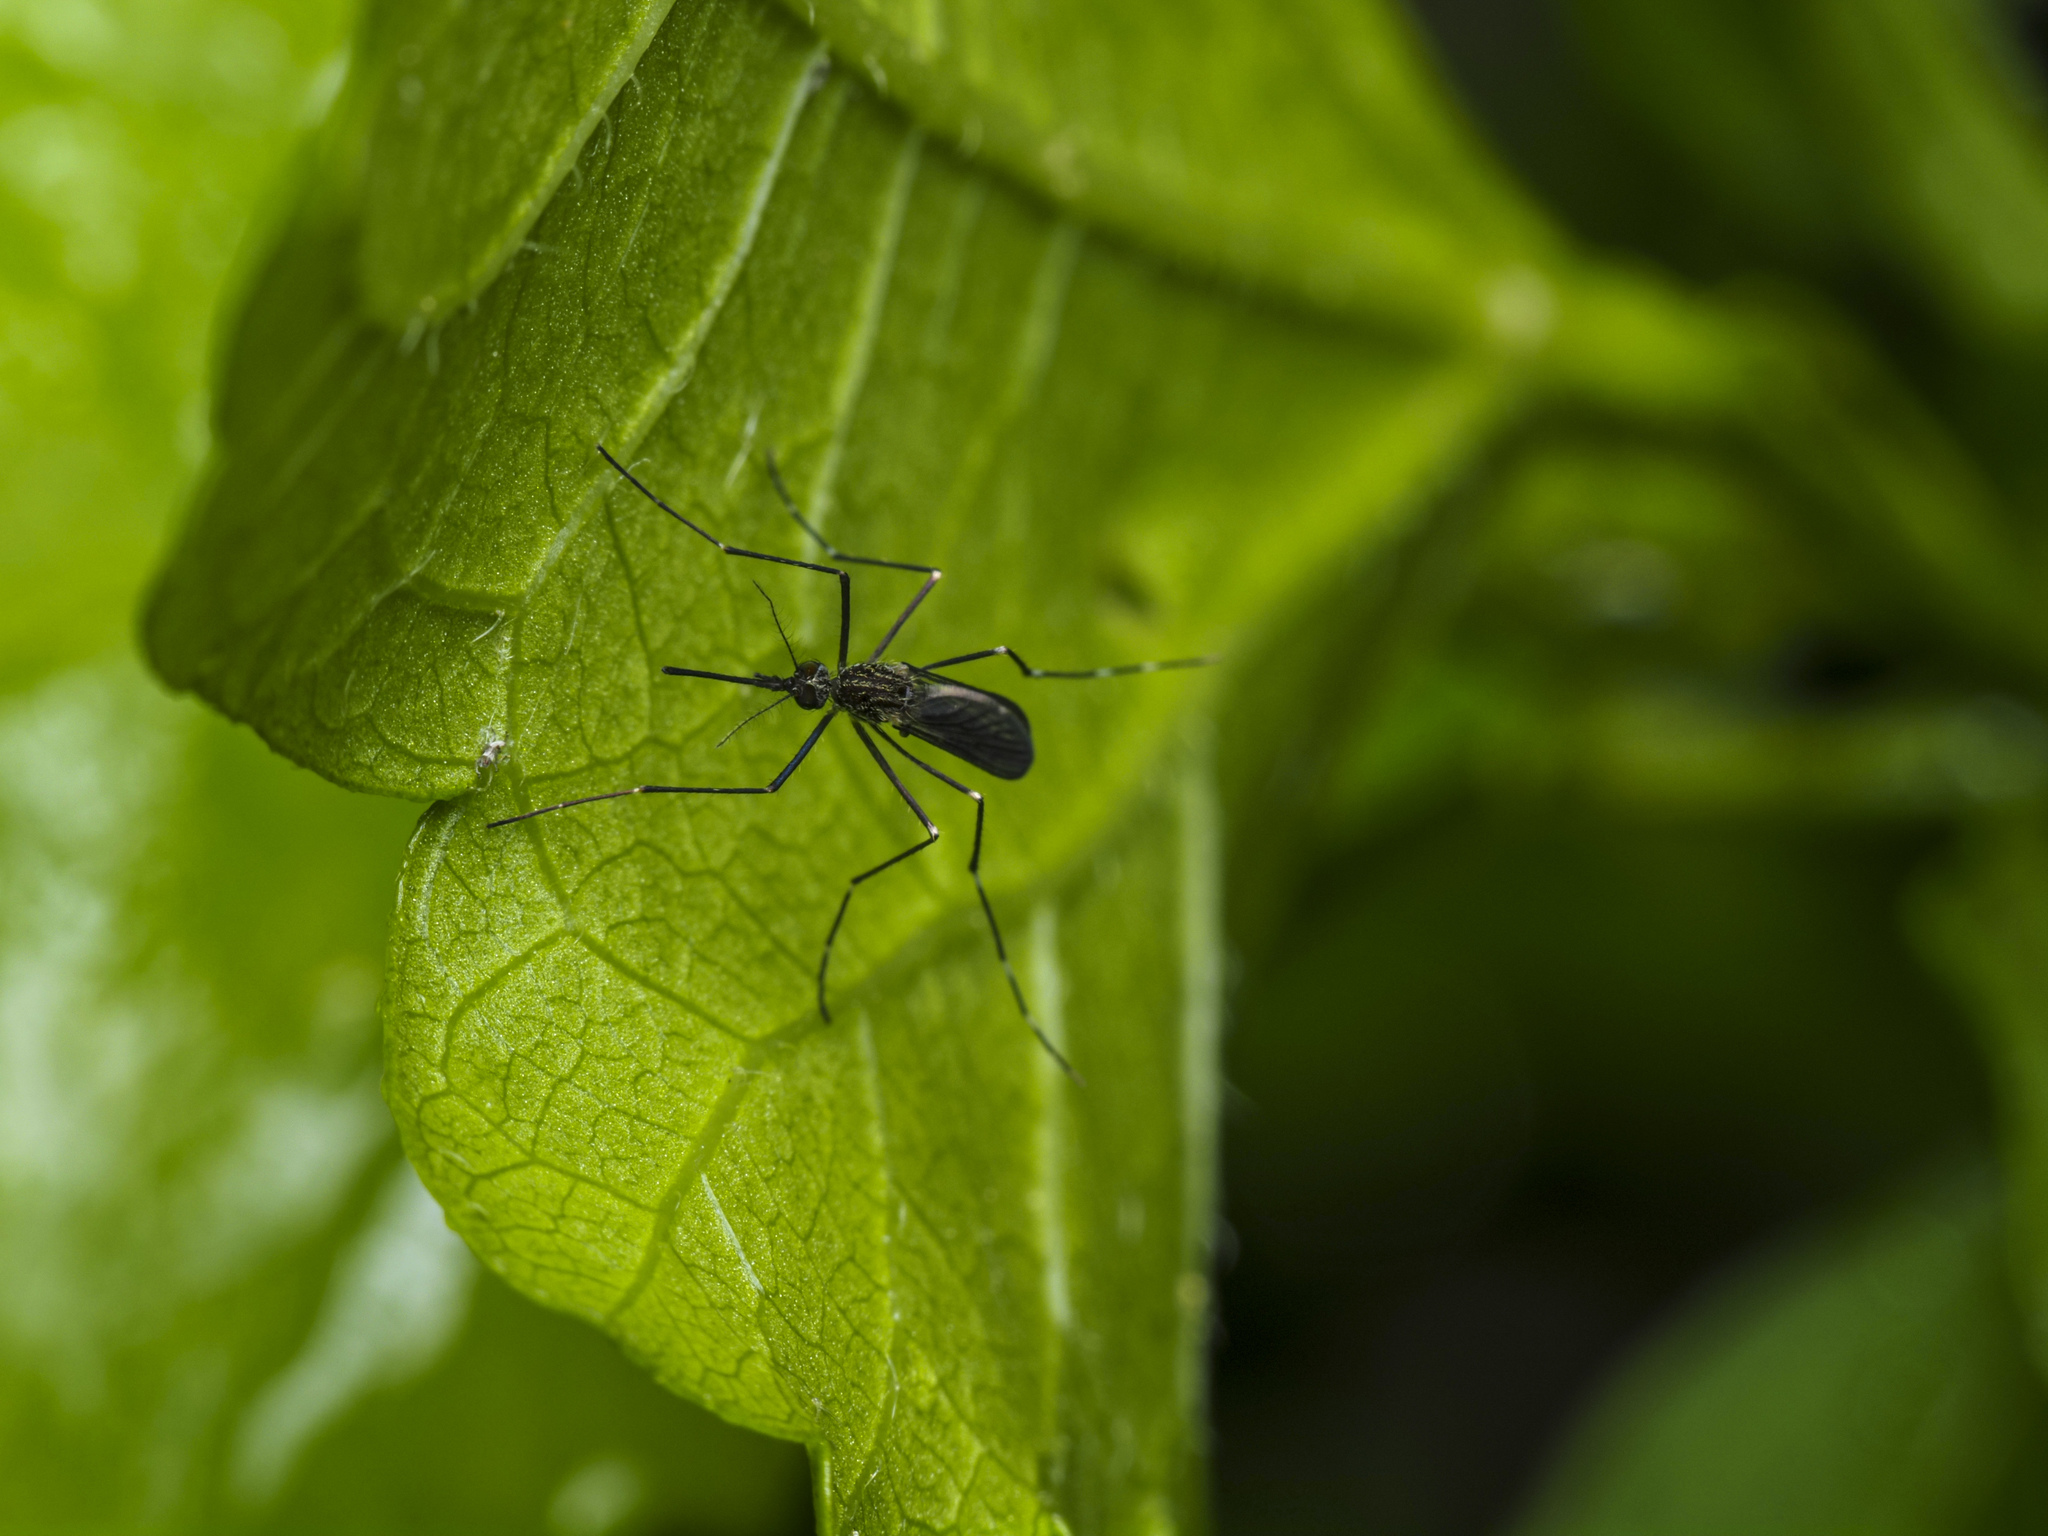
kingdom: Animalia
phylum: Arthropoda
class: Insecta
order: Diptera
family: Culicidae
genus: Aedes
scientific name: Aedes japonicus
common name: Asian bush mosquito
